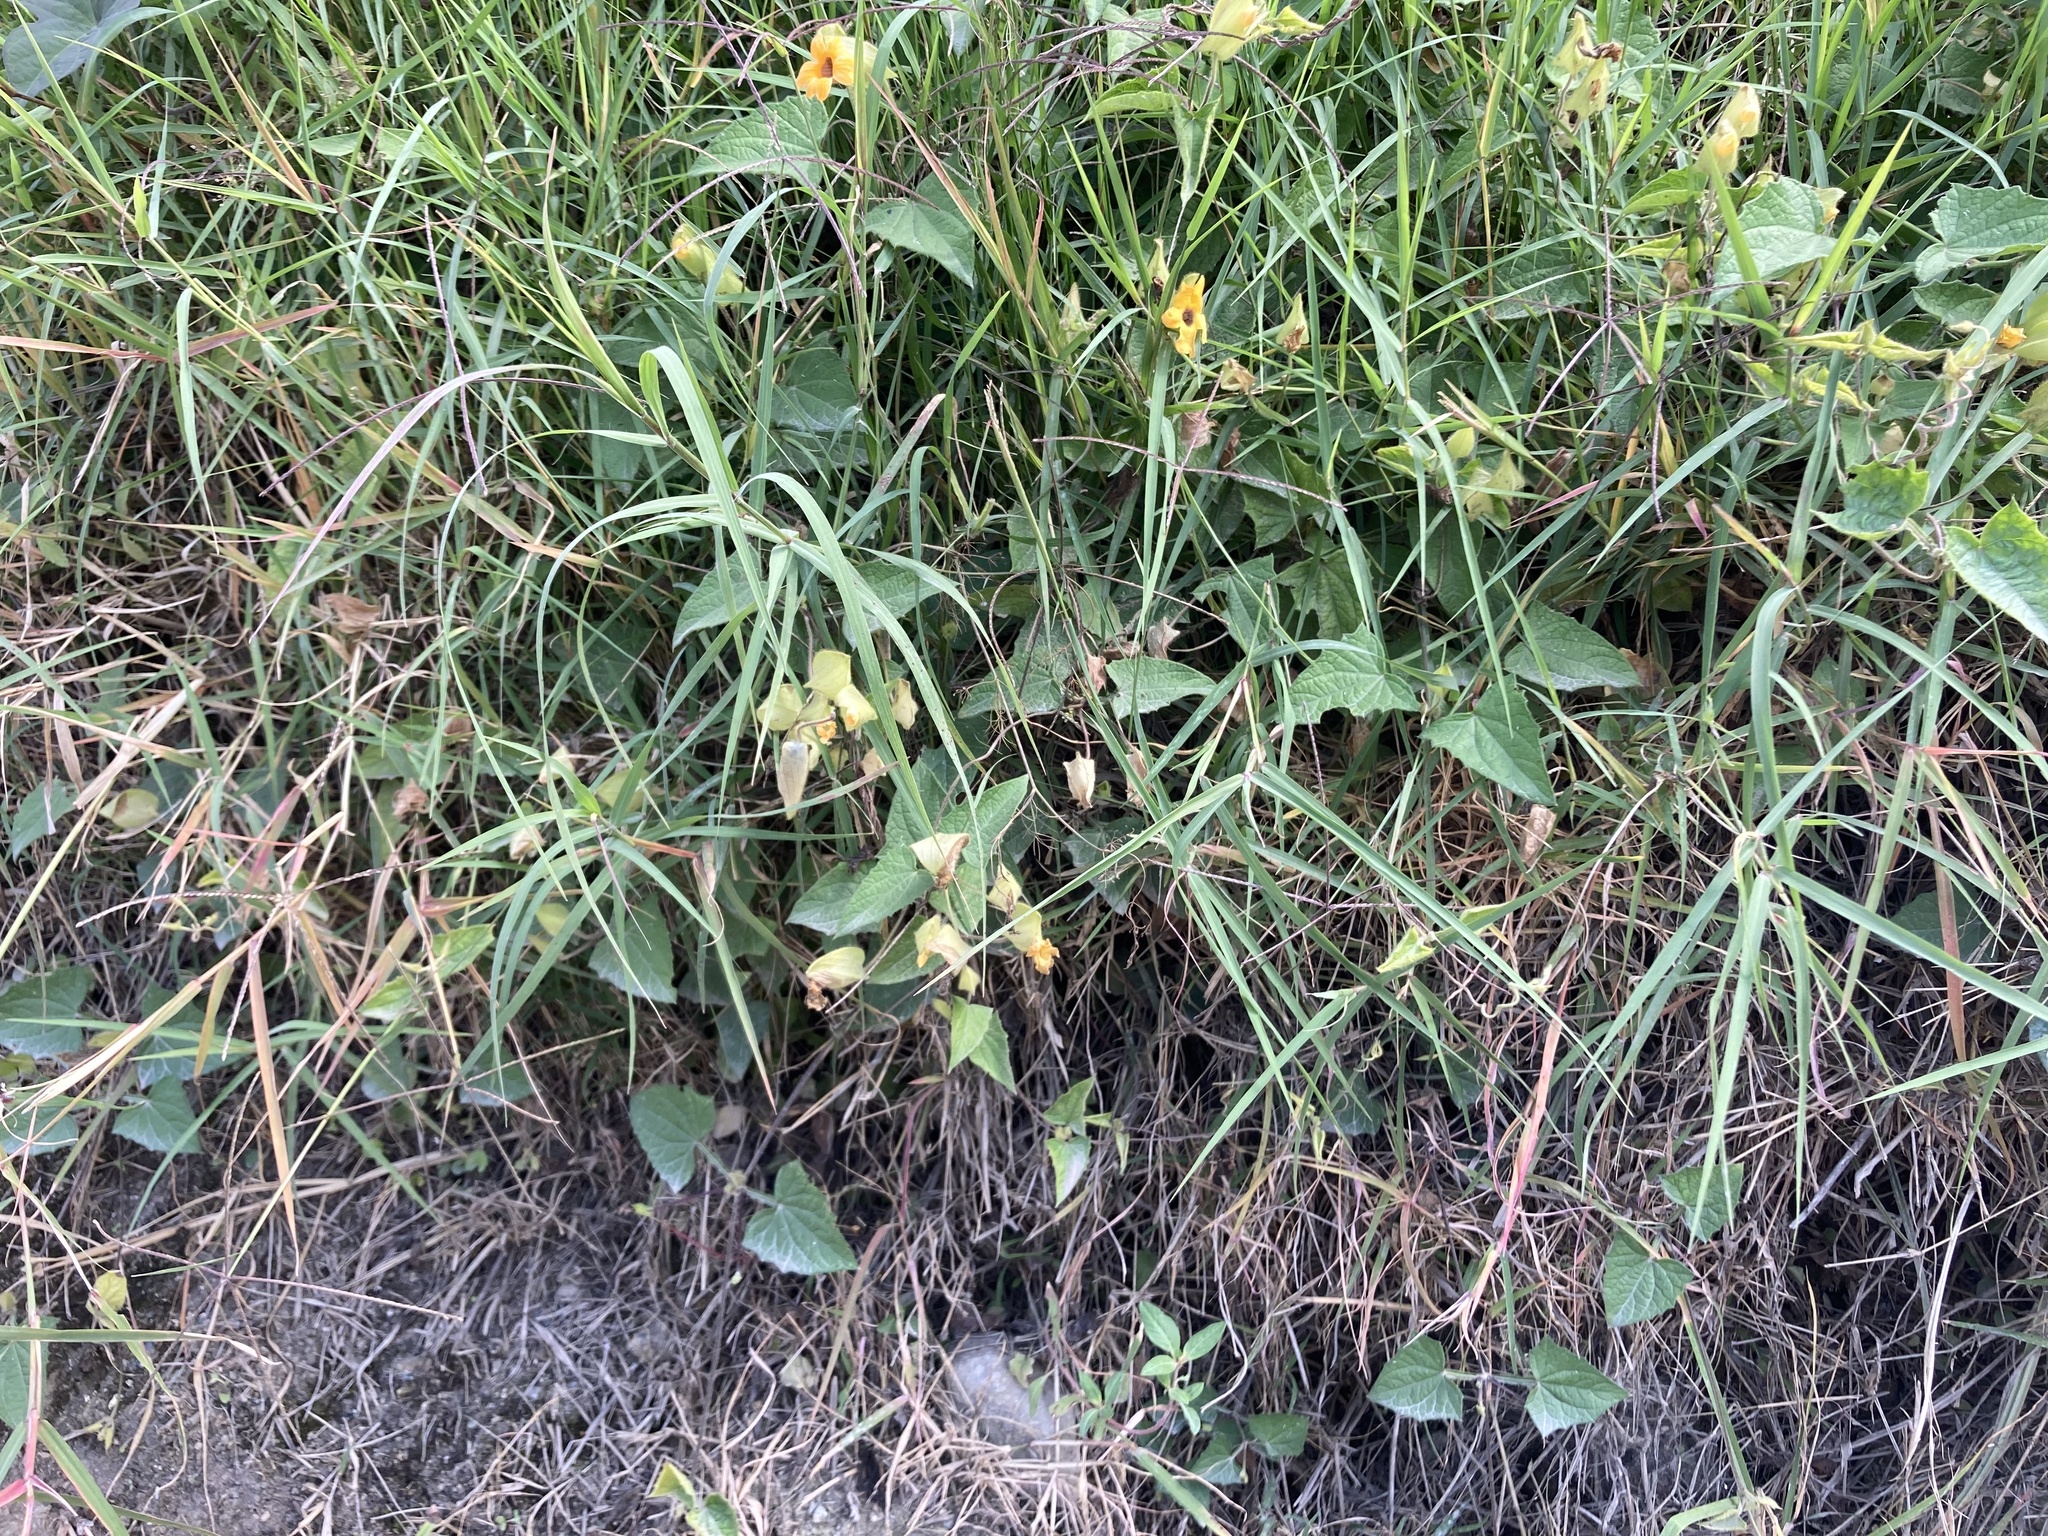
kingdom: Plantae
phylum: Tracheophyta
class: Magnoliopsida
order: Lamiales
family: Acanthaceae
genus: Thunbergia
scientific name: Thunbergia alata
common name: Blackeyed susan vine
